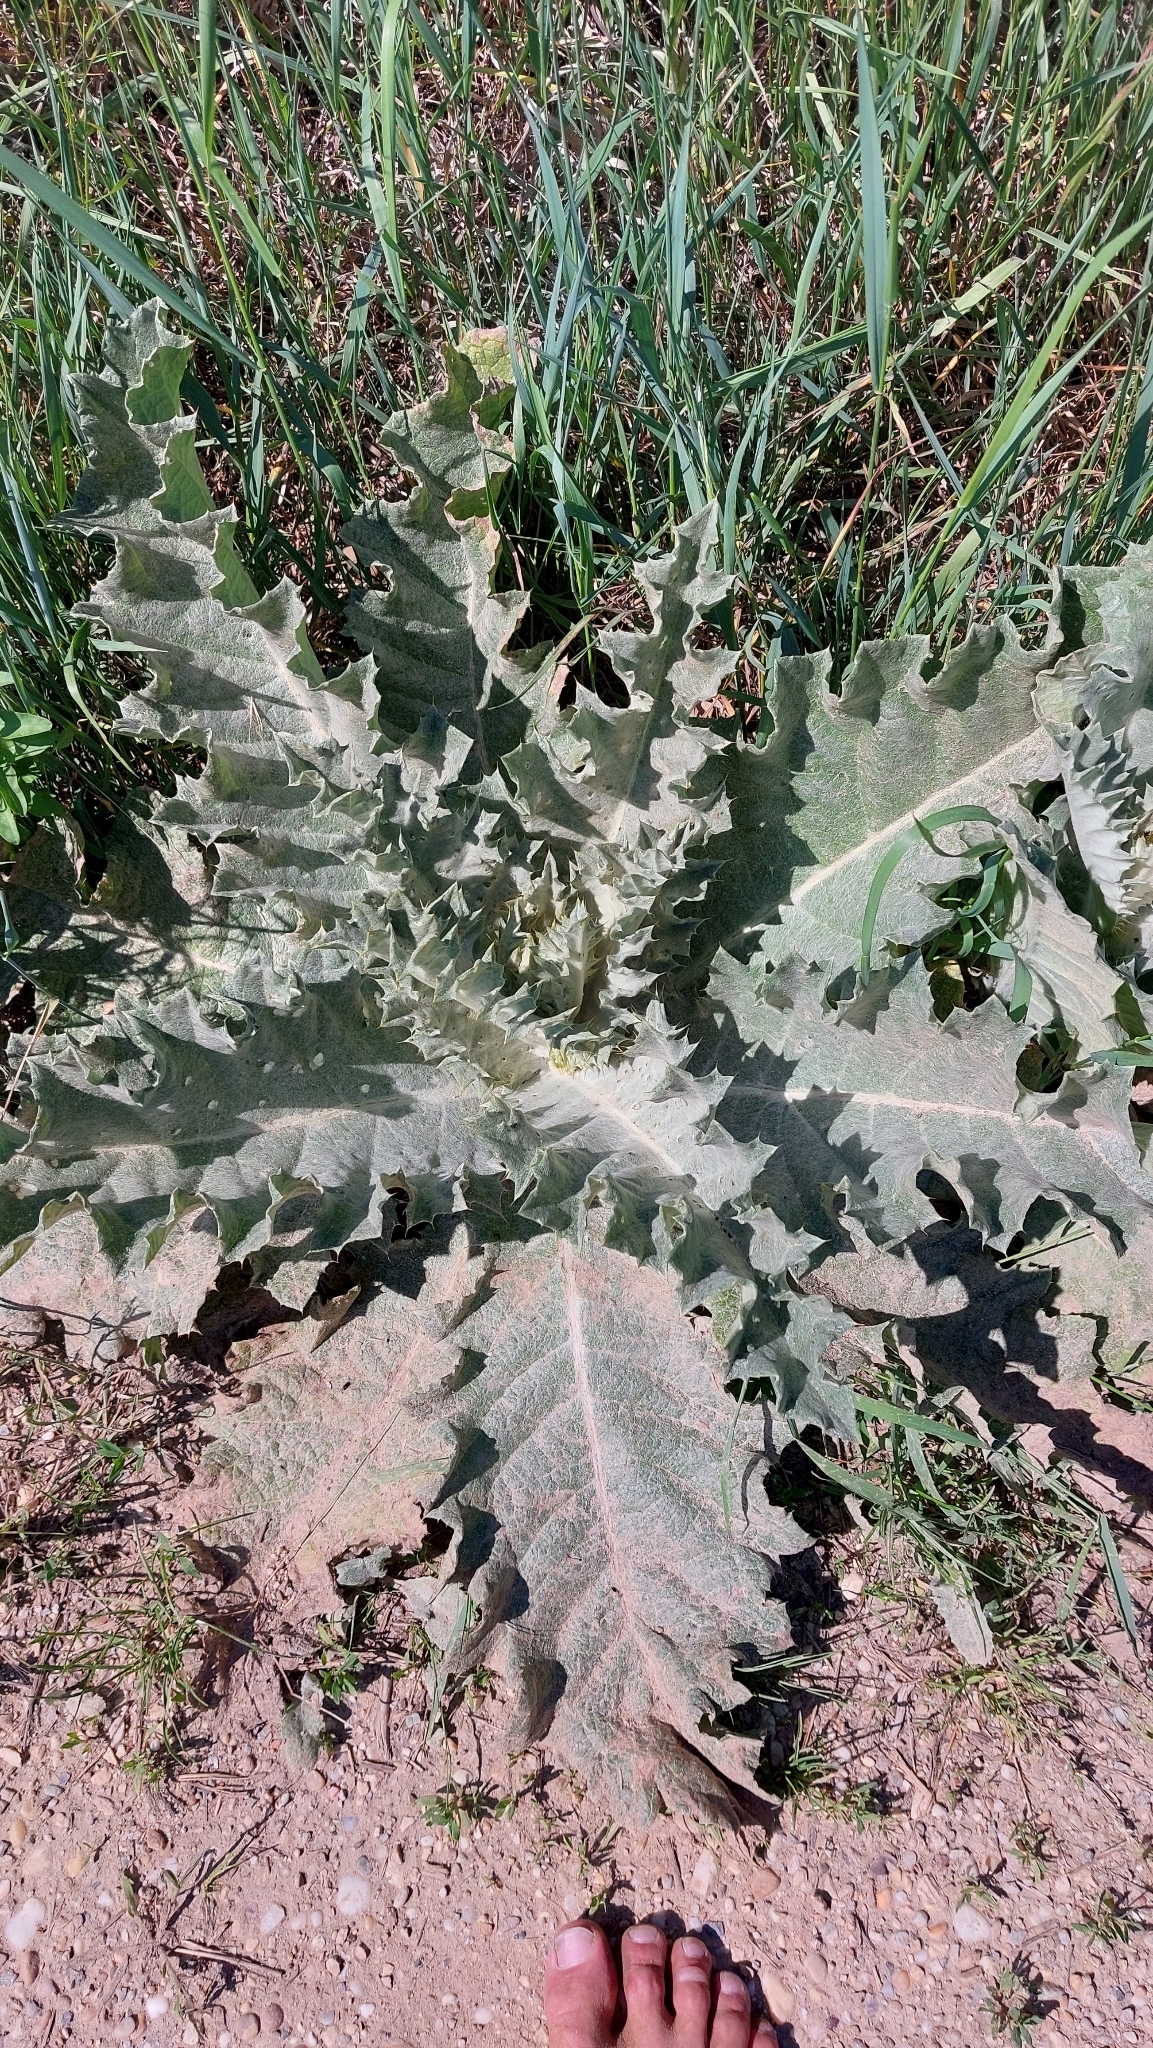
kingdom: Plantae
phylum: Tracheophyta
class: Magnoliopsida
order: Asterales
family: Asteraceae
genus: Onopordum
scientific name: Onopordum acanthium
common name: Scotch thistle
